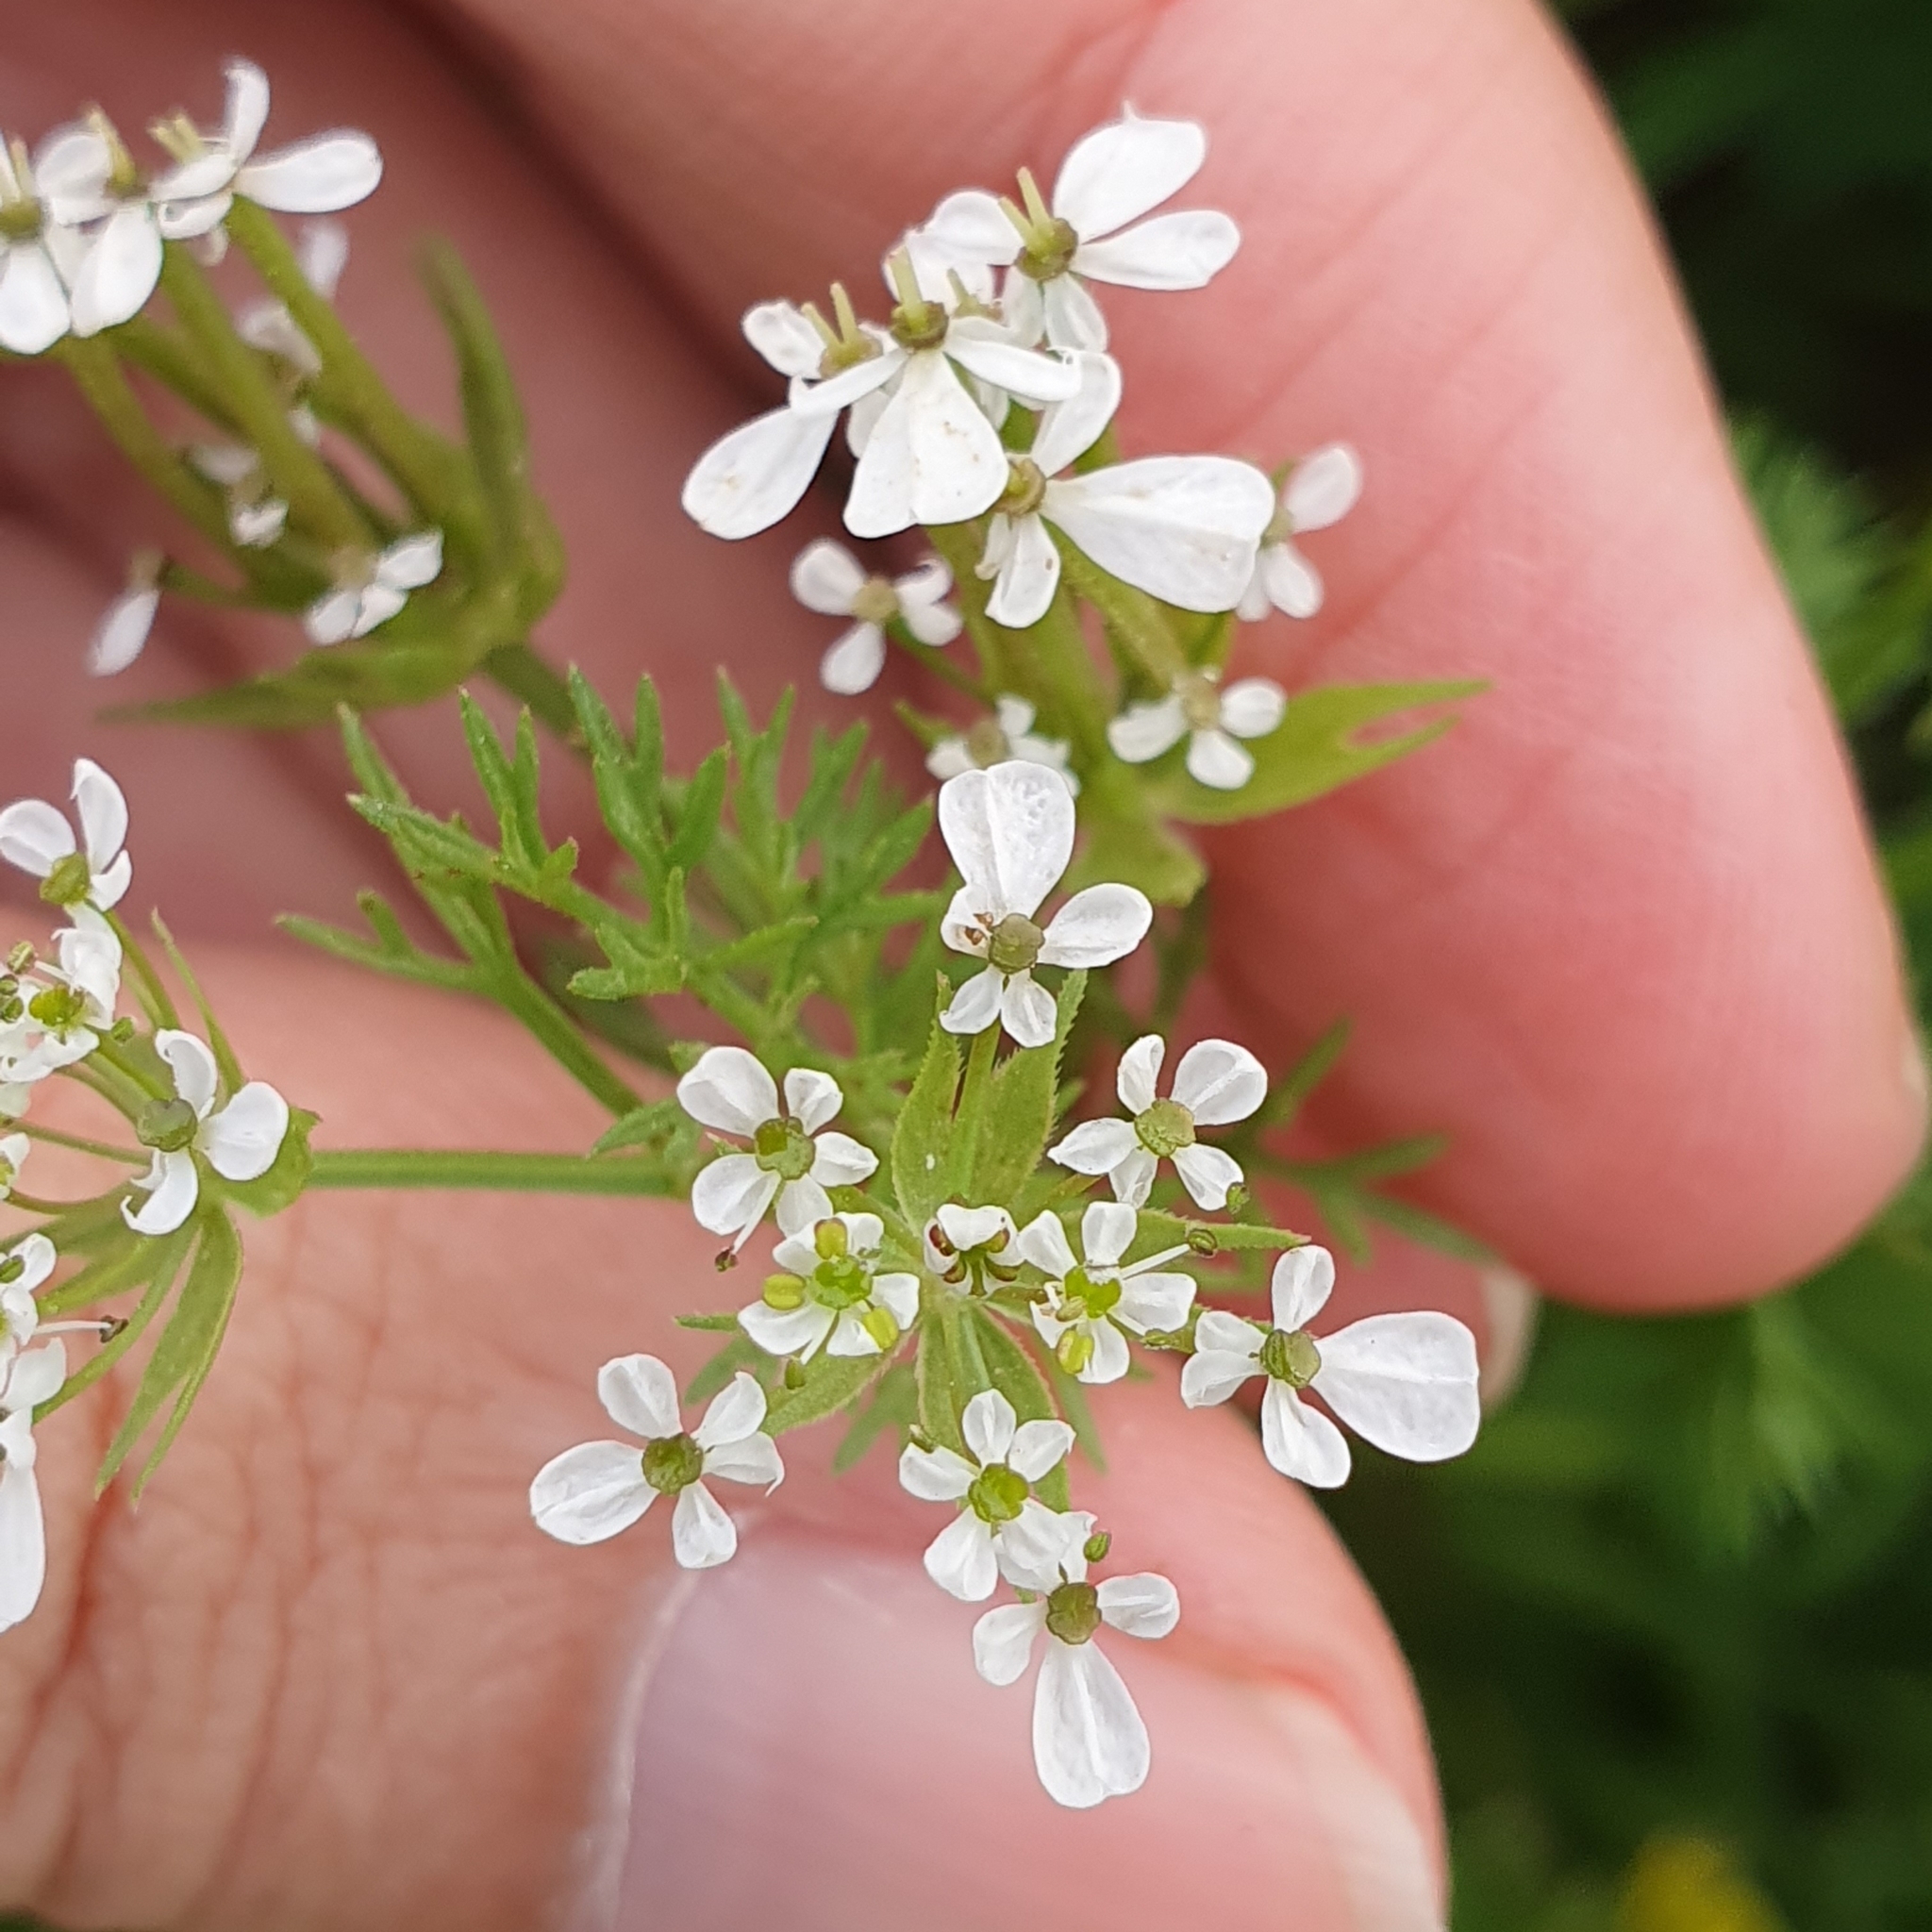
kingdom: Plantae
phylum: Tracheophyta
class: Magnoliopsida
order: Apiales
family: Apiaceae
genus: Scandix
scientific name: Scandix pecten-veneris
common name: Shepherd's-needle
